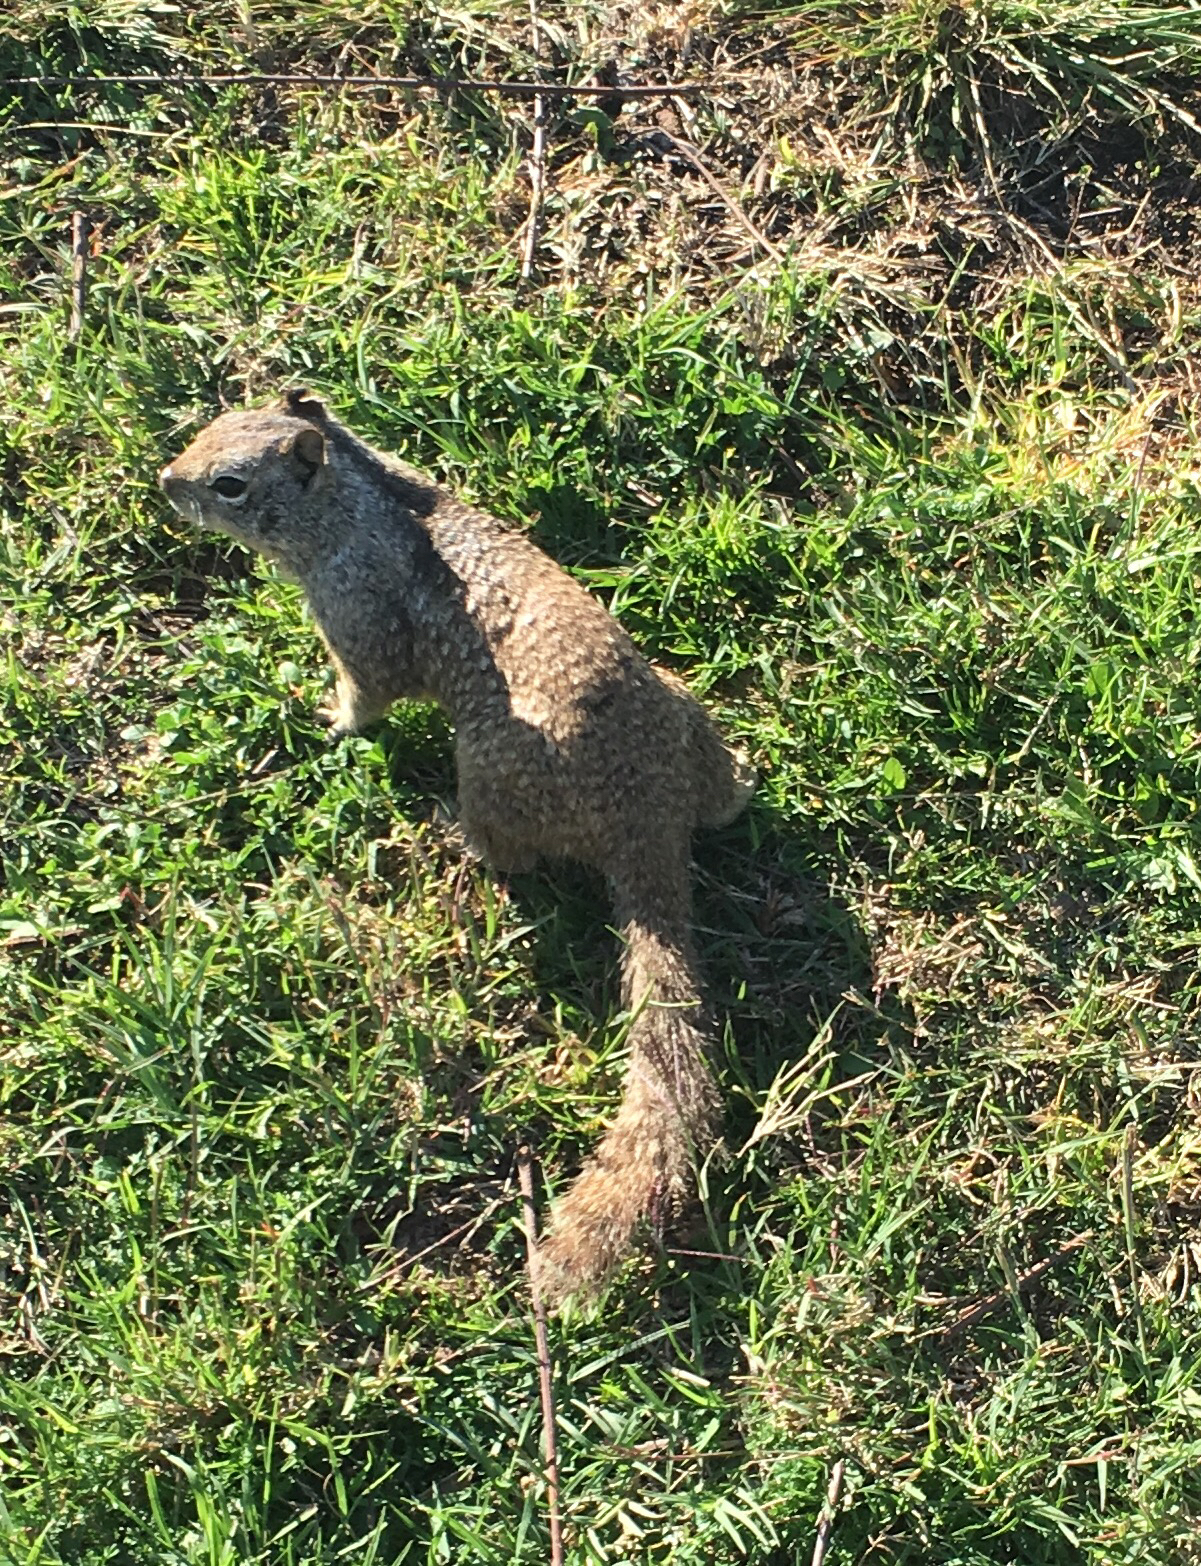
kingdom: Animalia
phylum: Chordata
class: Mammalia
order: Rodentia
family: Sciuridae
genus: Otospermophilus
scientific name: Otospermophilus beecheyi
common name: California ground squirrel
